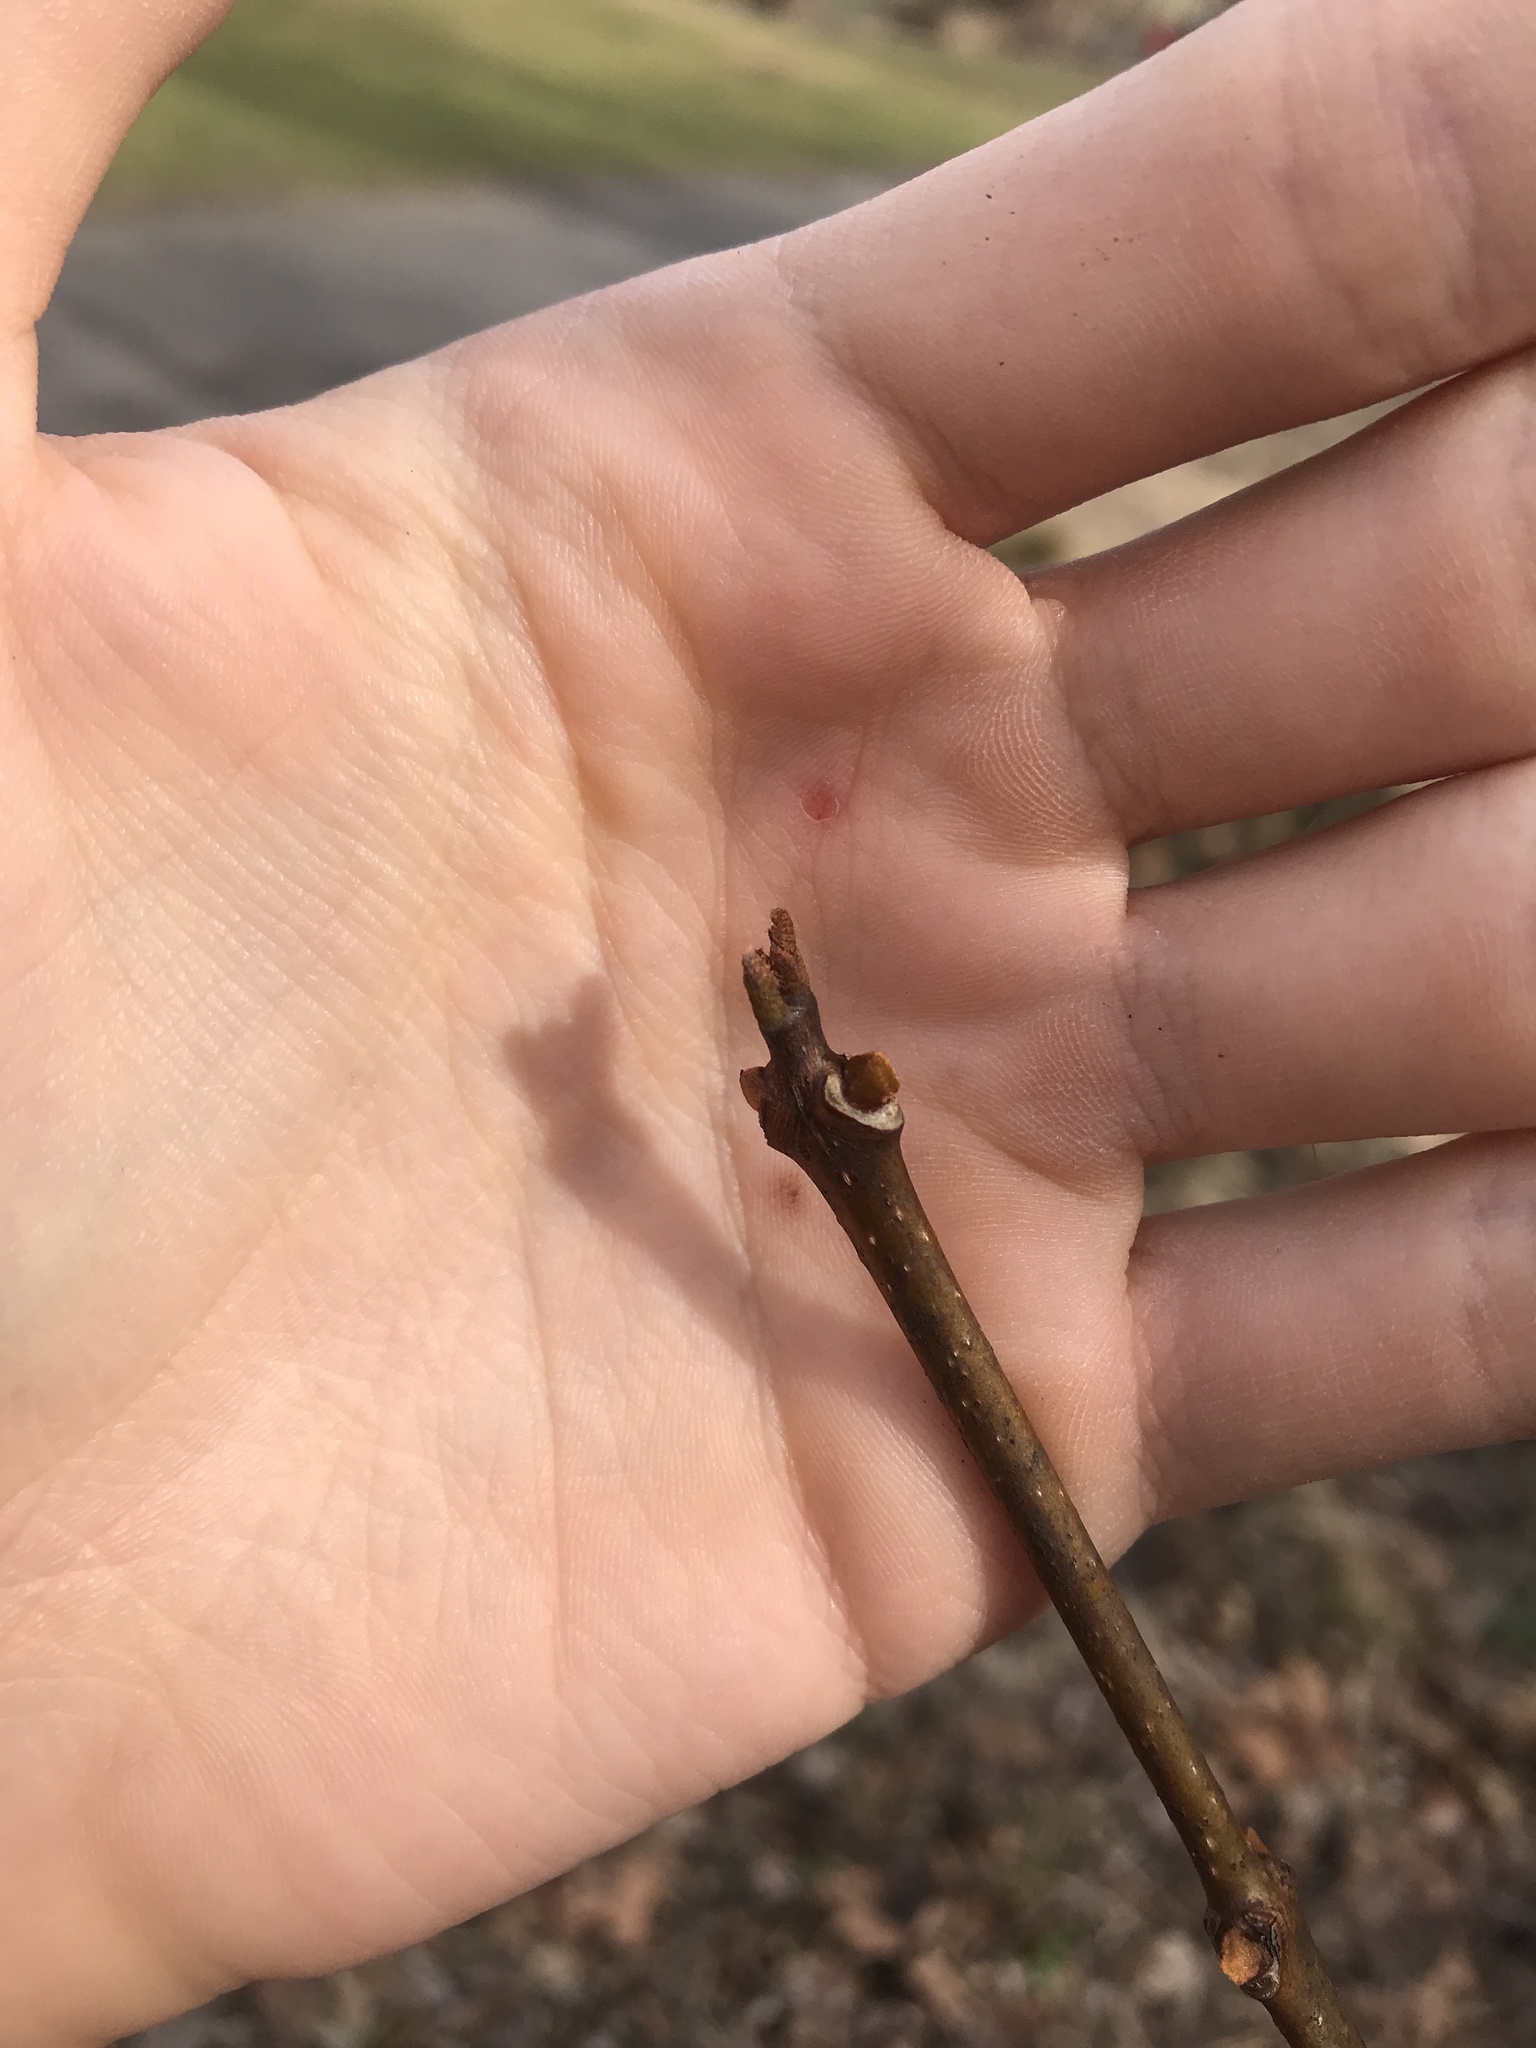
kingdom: Plantae
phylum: Tracheophyta
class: Magnoliopsida
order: Sapindales
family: Rutaceae
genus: Phellodendron
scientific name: Phellodendron amurense
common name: Amur corktree
